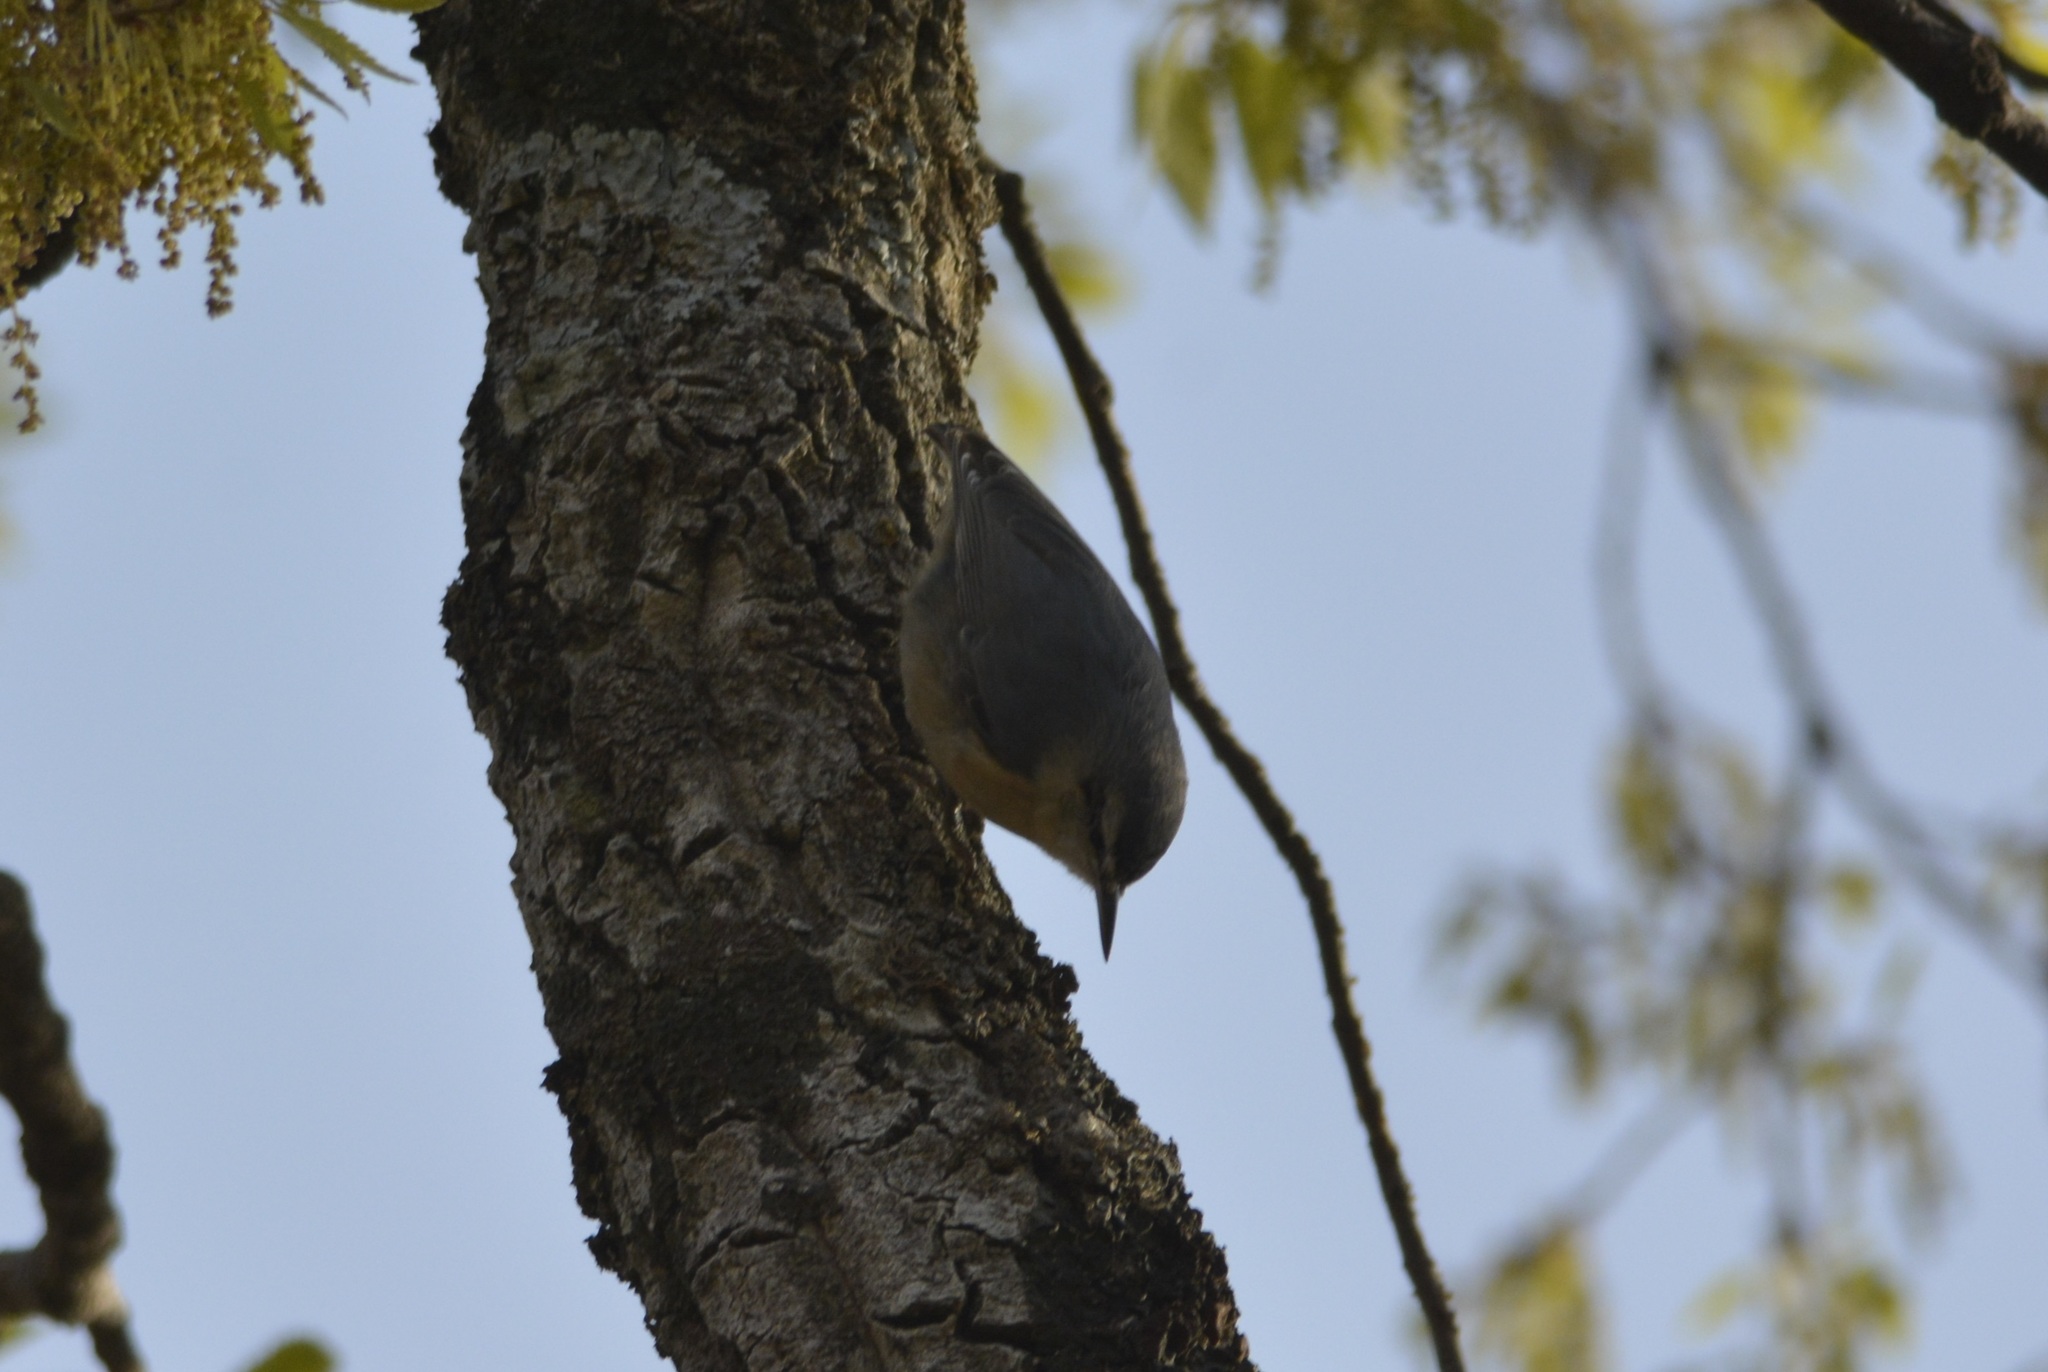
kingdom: Animalia
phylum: Chordata
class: Aves
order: Passeriformes
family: Sittidae
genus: Sitta
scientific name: Sitta ledanti
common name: Algerian nuthatch
